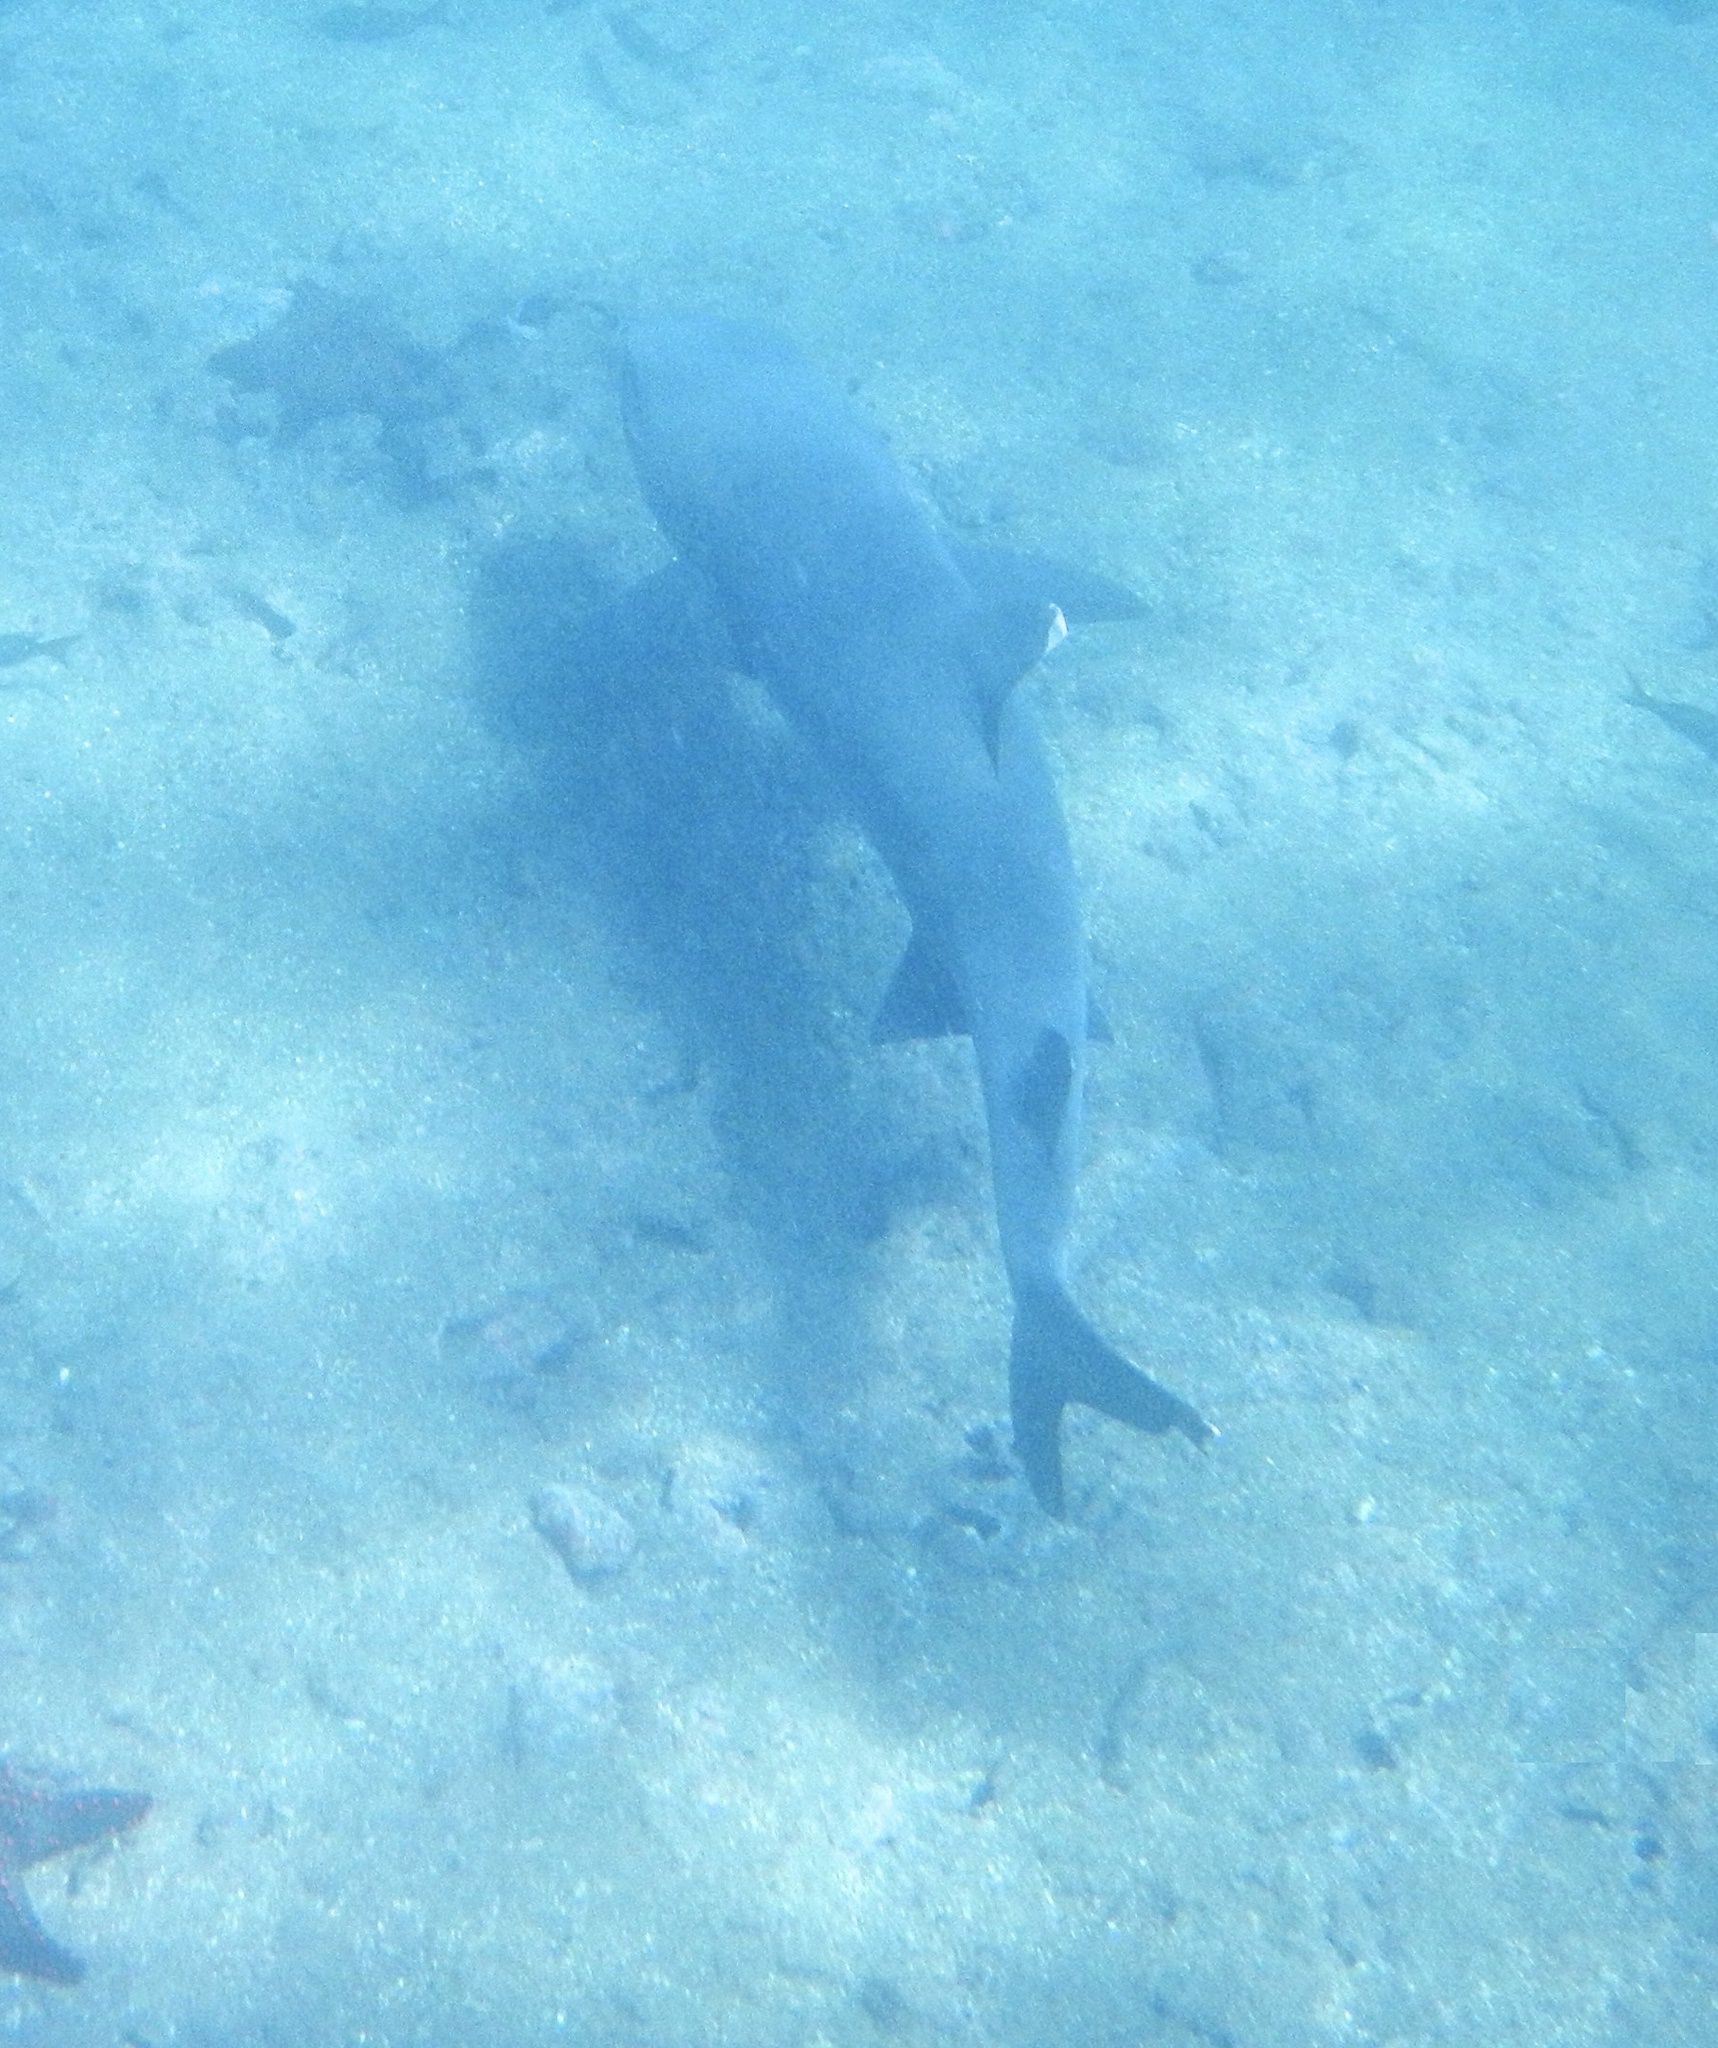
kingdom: Animalia
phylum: Chordata
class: Elasmobranchii
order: Carcharhiniformes
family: Carcharhinidae
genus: Triaenodon
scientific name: Triaenodon obesus
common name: Whitetip reef shark
